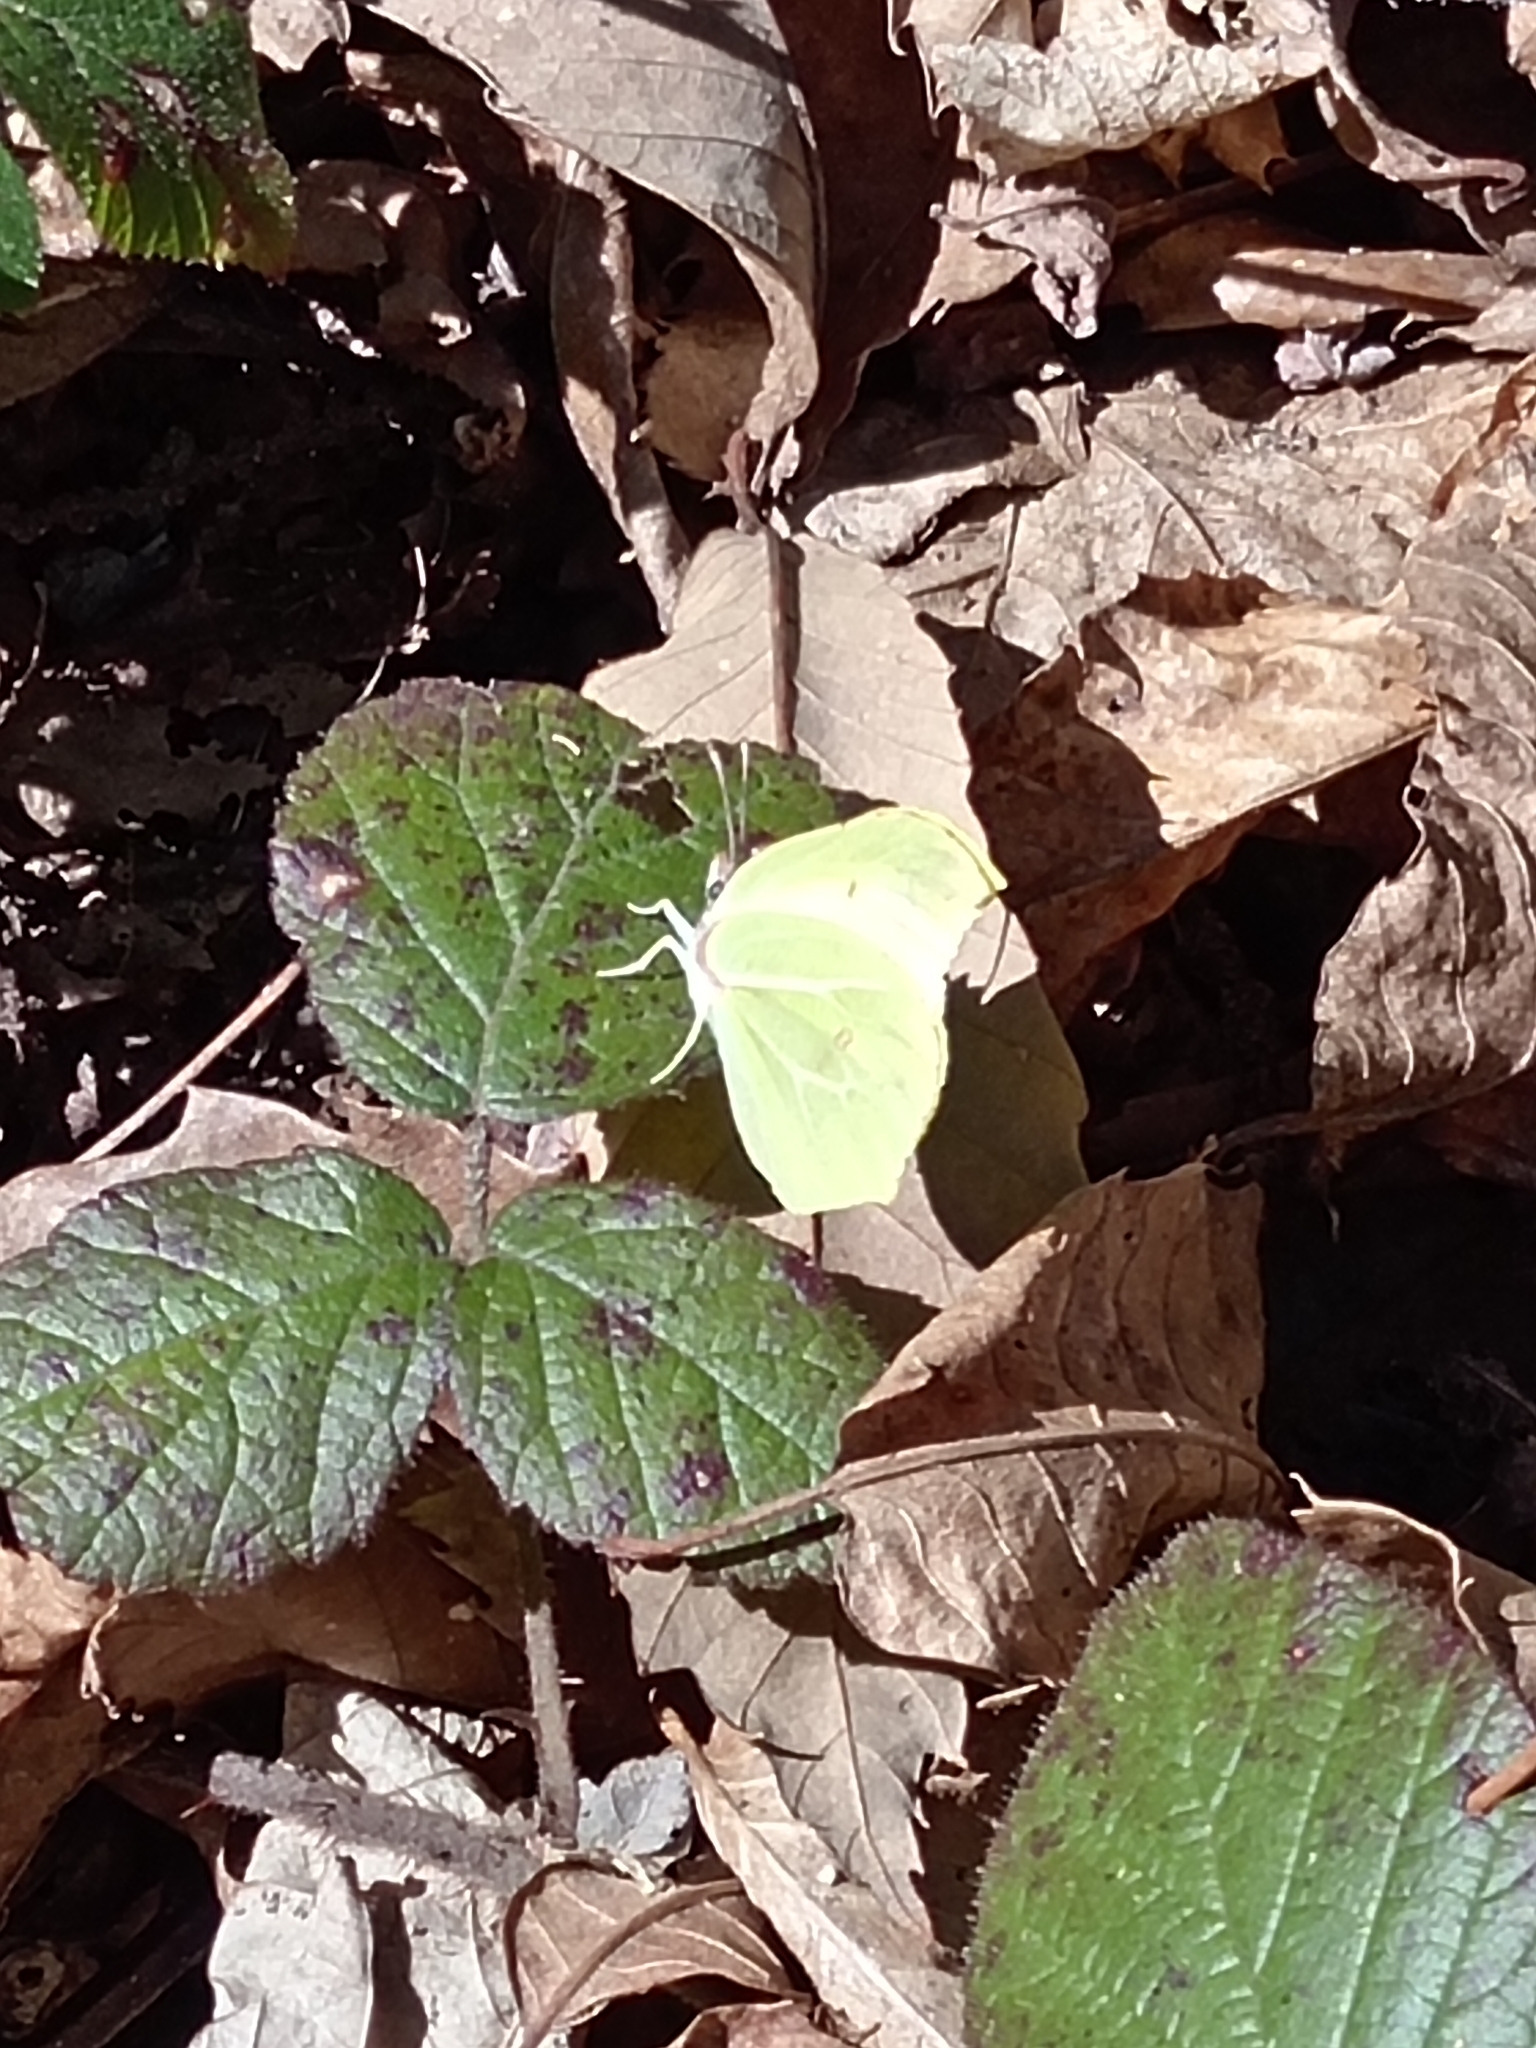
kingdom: Animalia
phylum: Arthropoda
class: Insecta
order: Lepidoptera
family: Pieridae
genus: Gonepteryx
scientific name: Gonepteryx rhamni
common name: Brimstone
